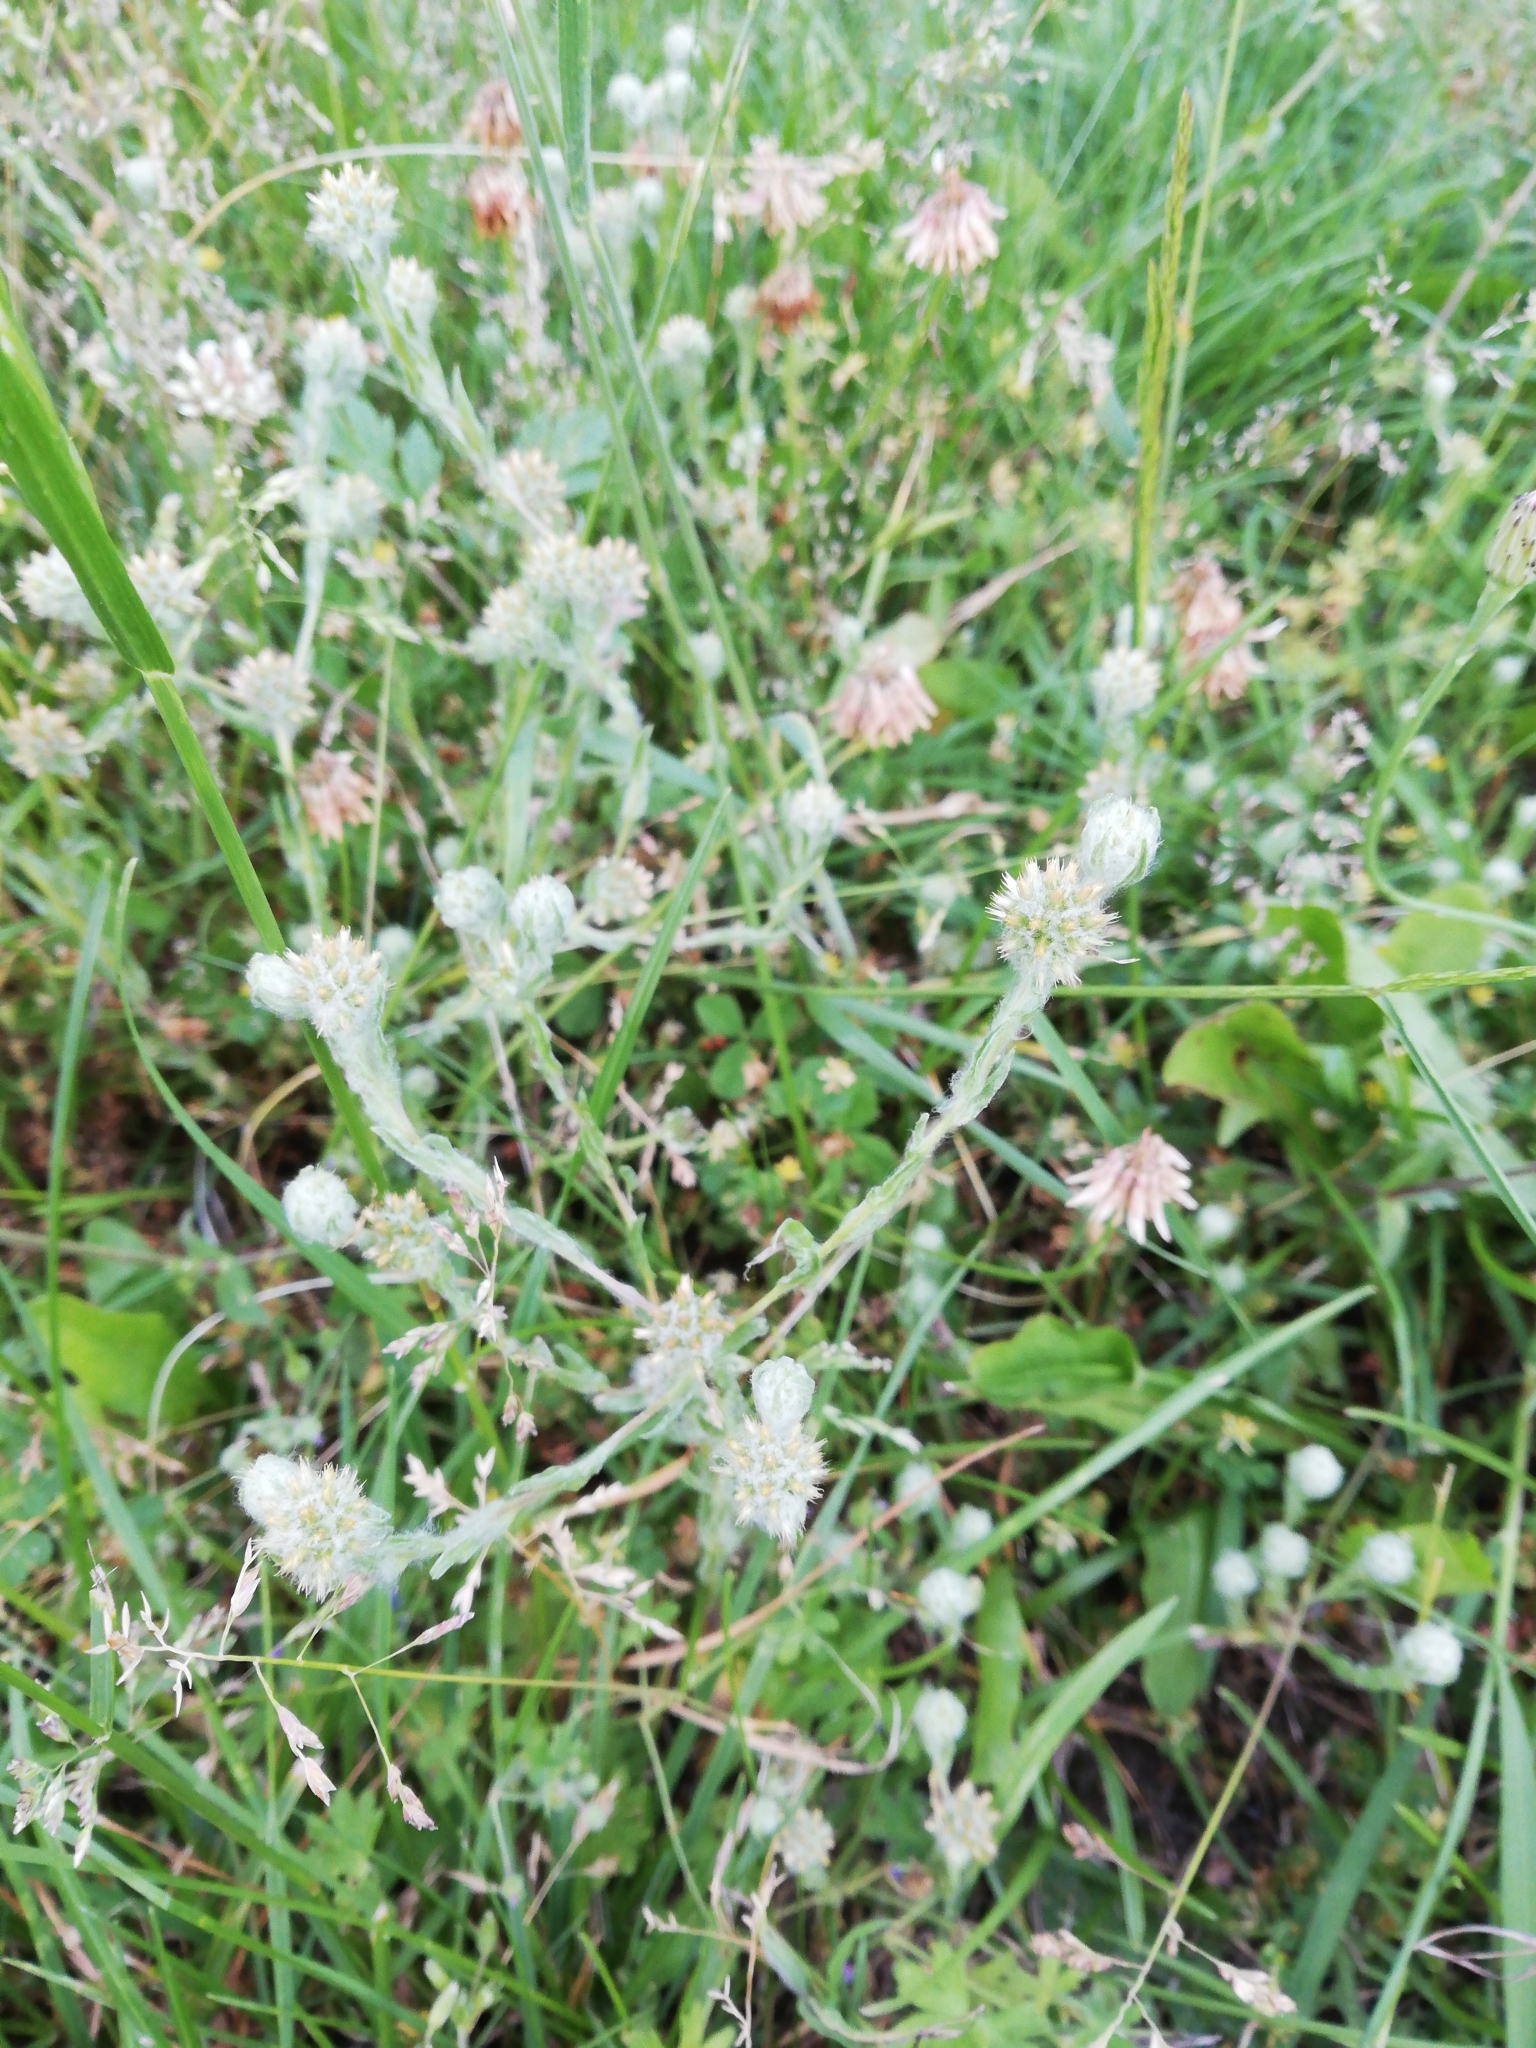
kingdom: Plantae
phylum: Tracheophyta
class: Magnoliopsida
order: Asterales
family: Asteraceae
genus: Filago
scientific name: Filago germanica
